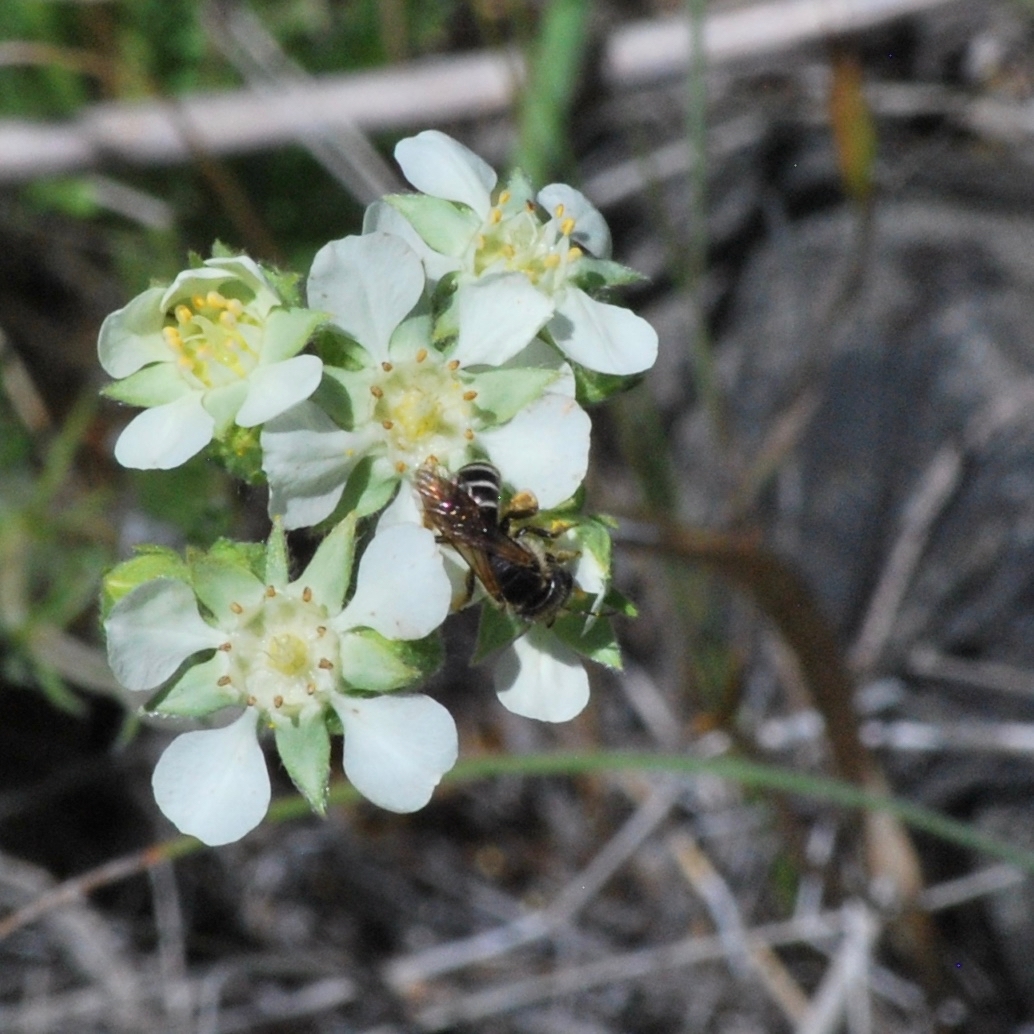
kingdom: Animalia
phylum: Arthropoda
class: Insecta
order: Hymenoptera
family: Halictidae
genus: Halictus
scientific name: Halictus ligatus
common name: Ligated furrow bee
